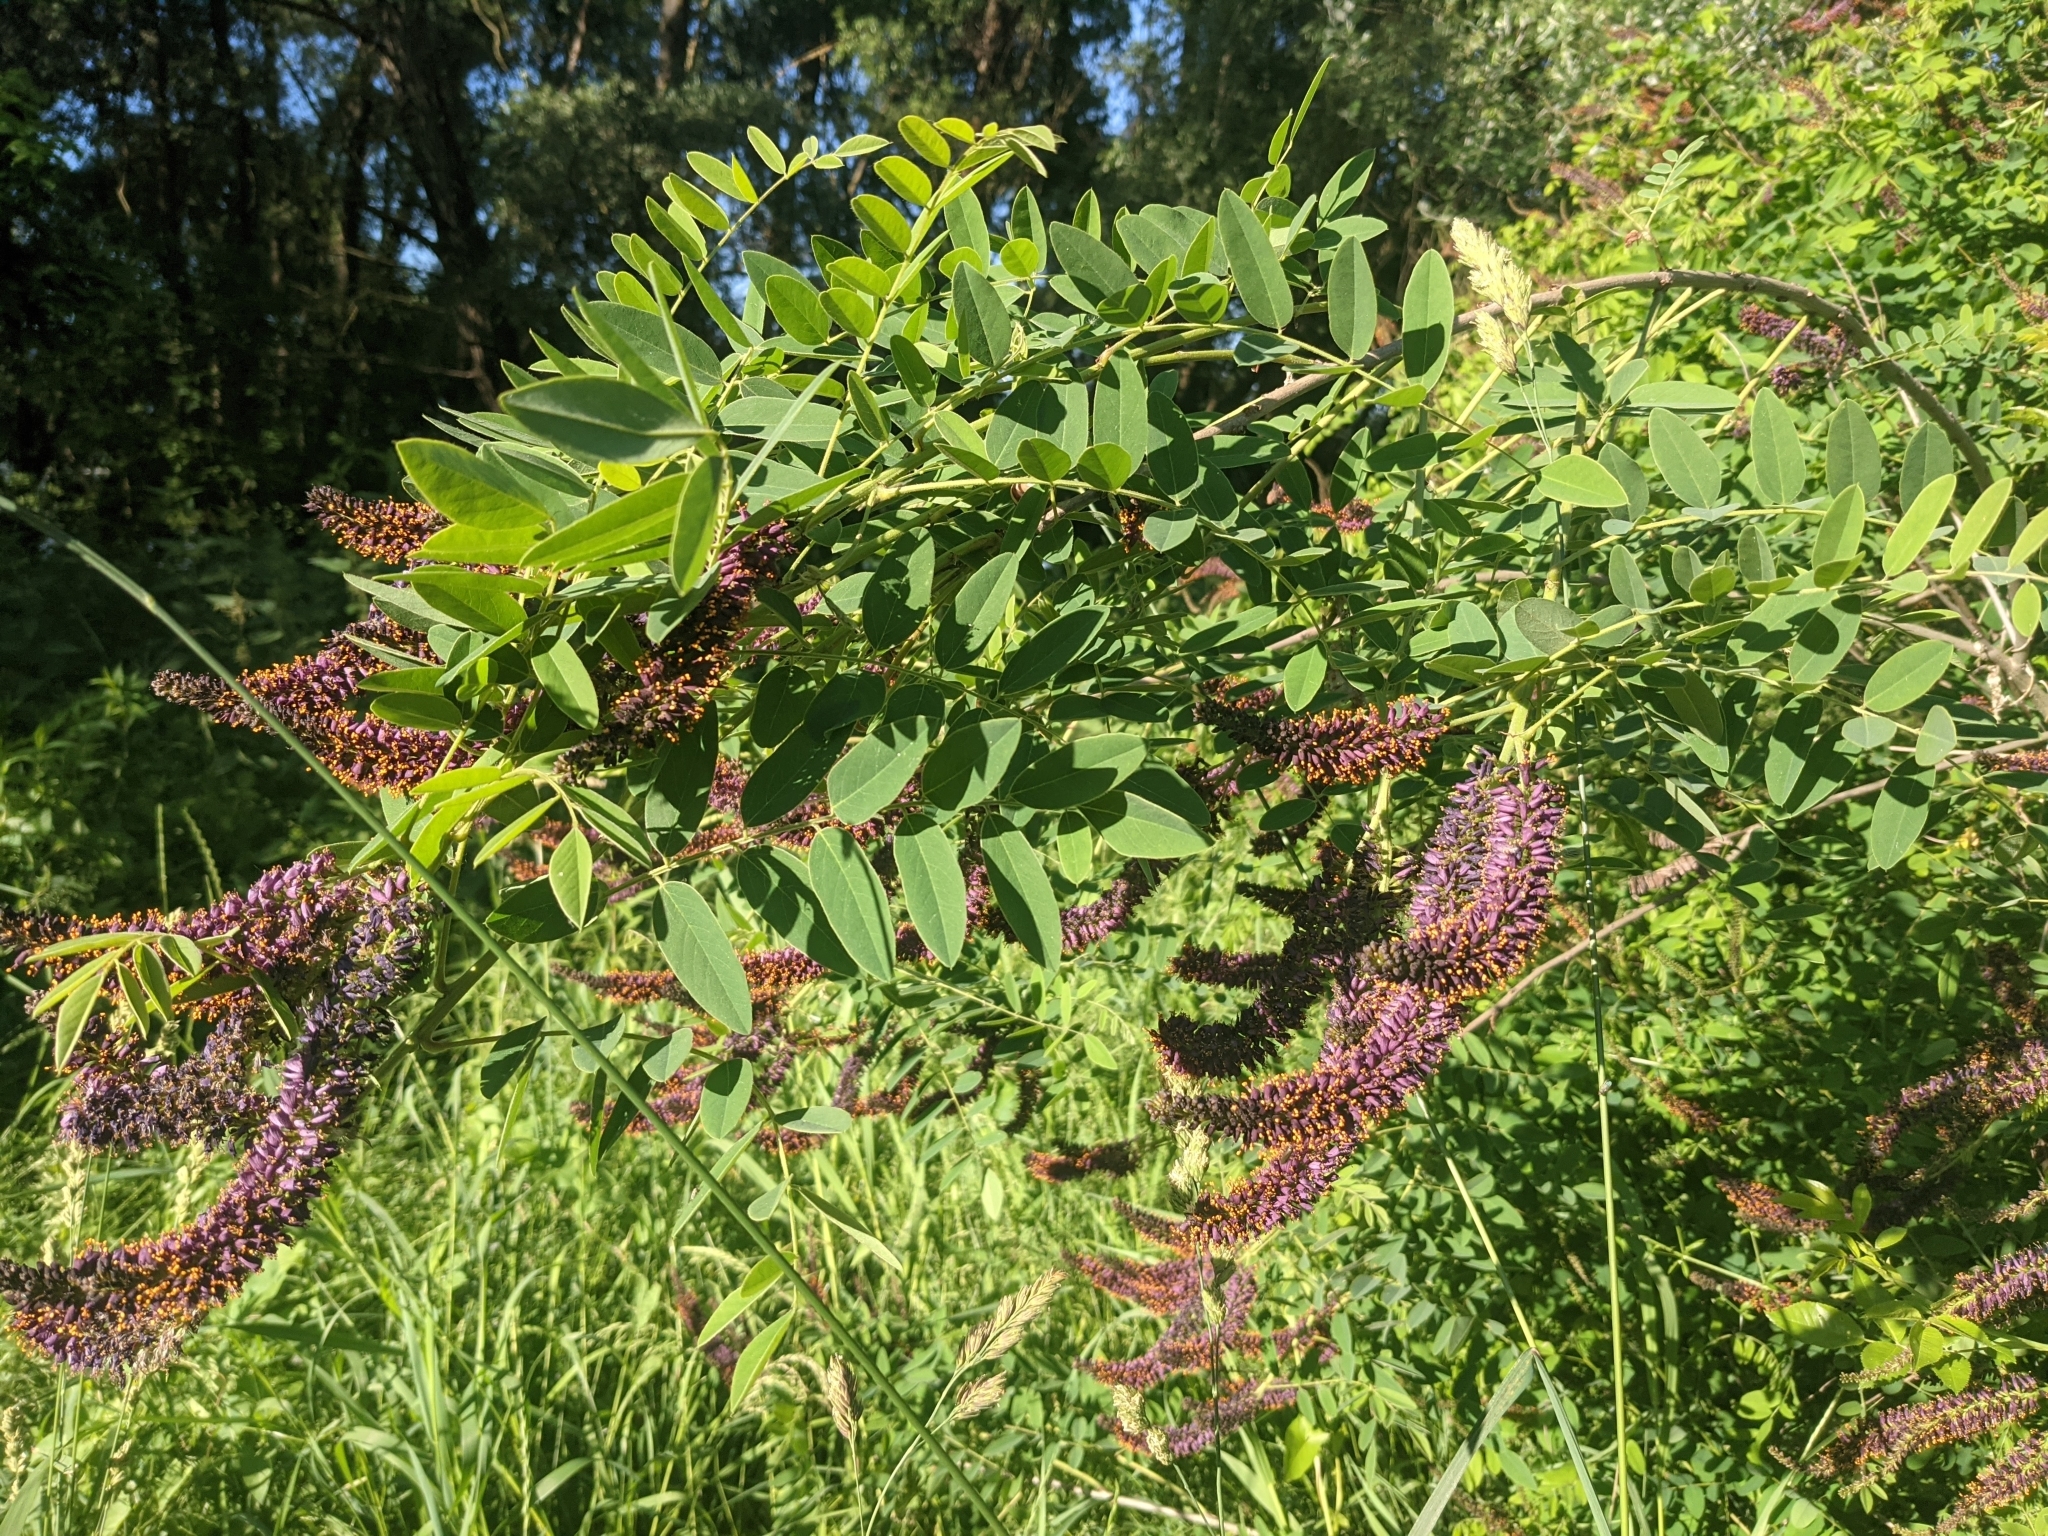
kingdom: Plantae
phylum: Tracheophyta
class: Magnoliopsida
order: Fabales
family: Fabaceae
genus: Amorpha
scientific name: Amorpha fruticosa
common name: False indigo
